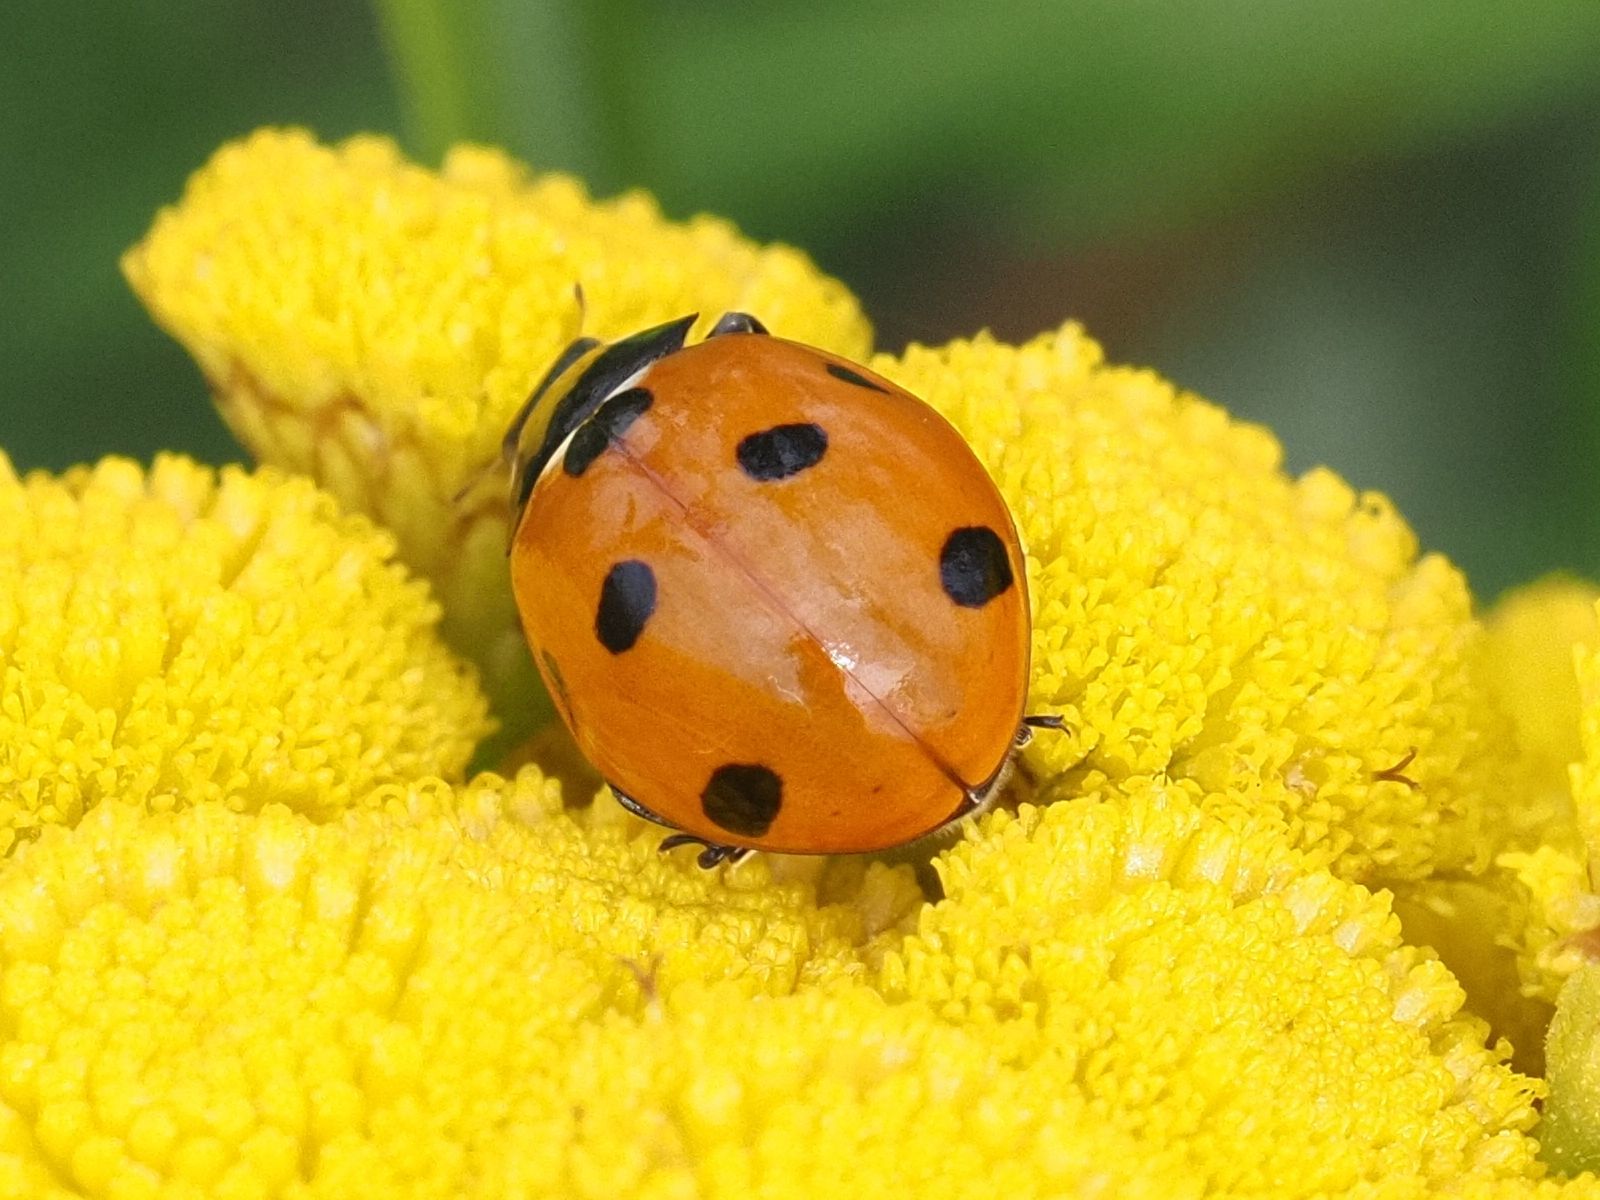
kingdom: Animalia
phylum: Arthropoda
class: Insecta
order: Coleoptera
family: Coccinellidae
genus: Coccinella
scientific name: Coccinella septempunctata
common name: Sevenspotted lady beetle
